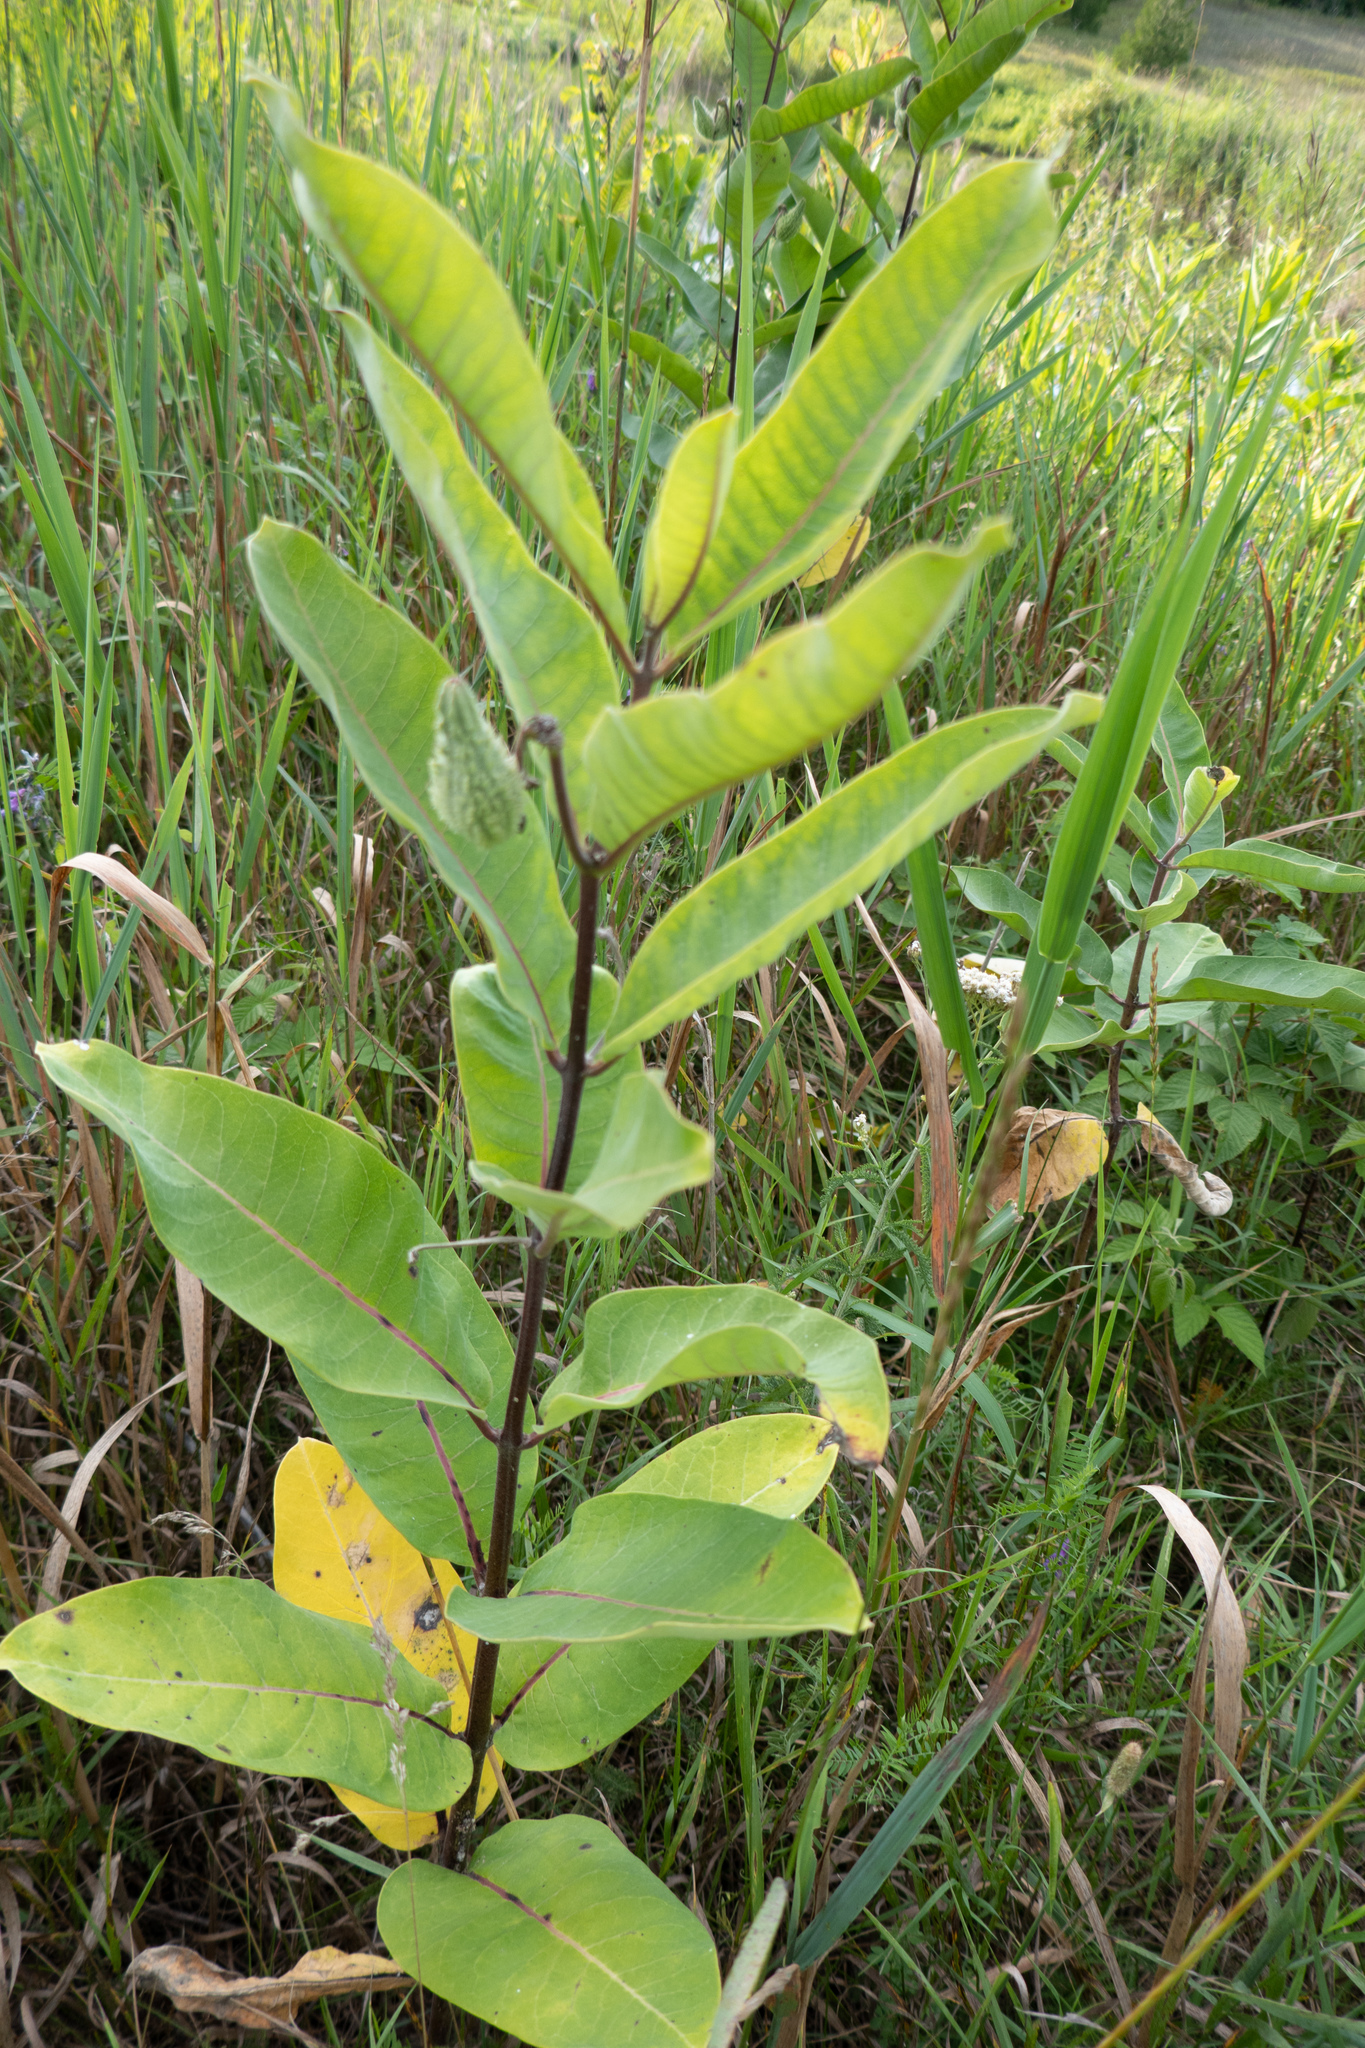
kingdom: Plantae
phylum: Tracheophyta
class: Magnoliopsida
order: Gentianales
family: Apocynaceae
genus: Asclepias
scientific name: Asclepias syriaca
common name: Common milkweed
